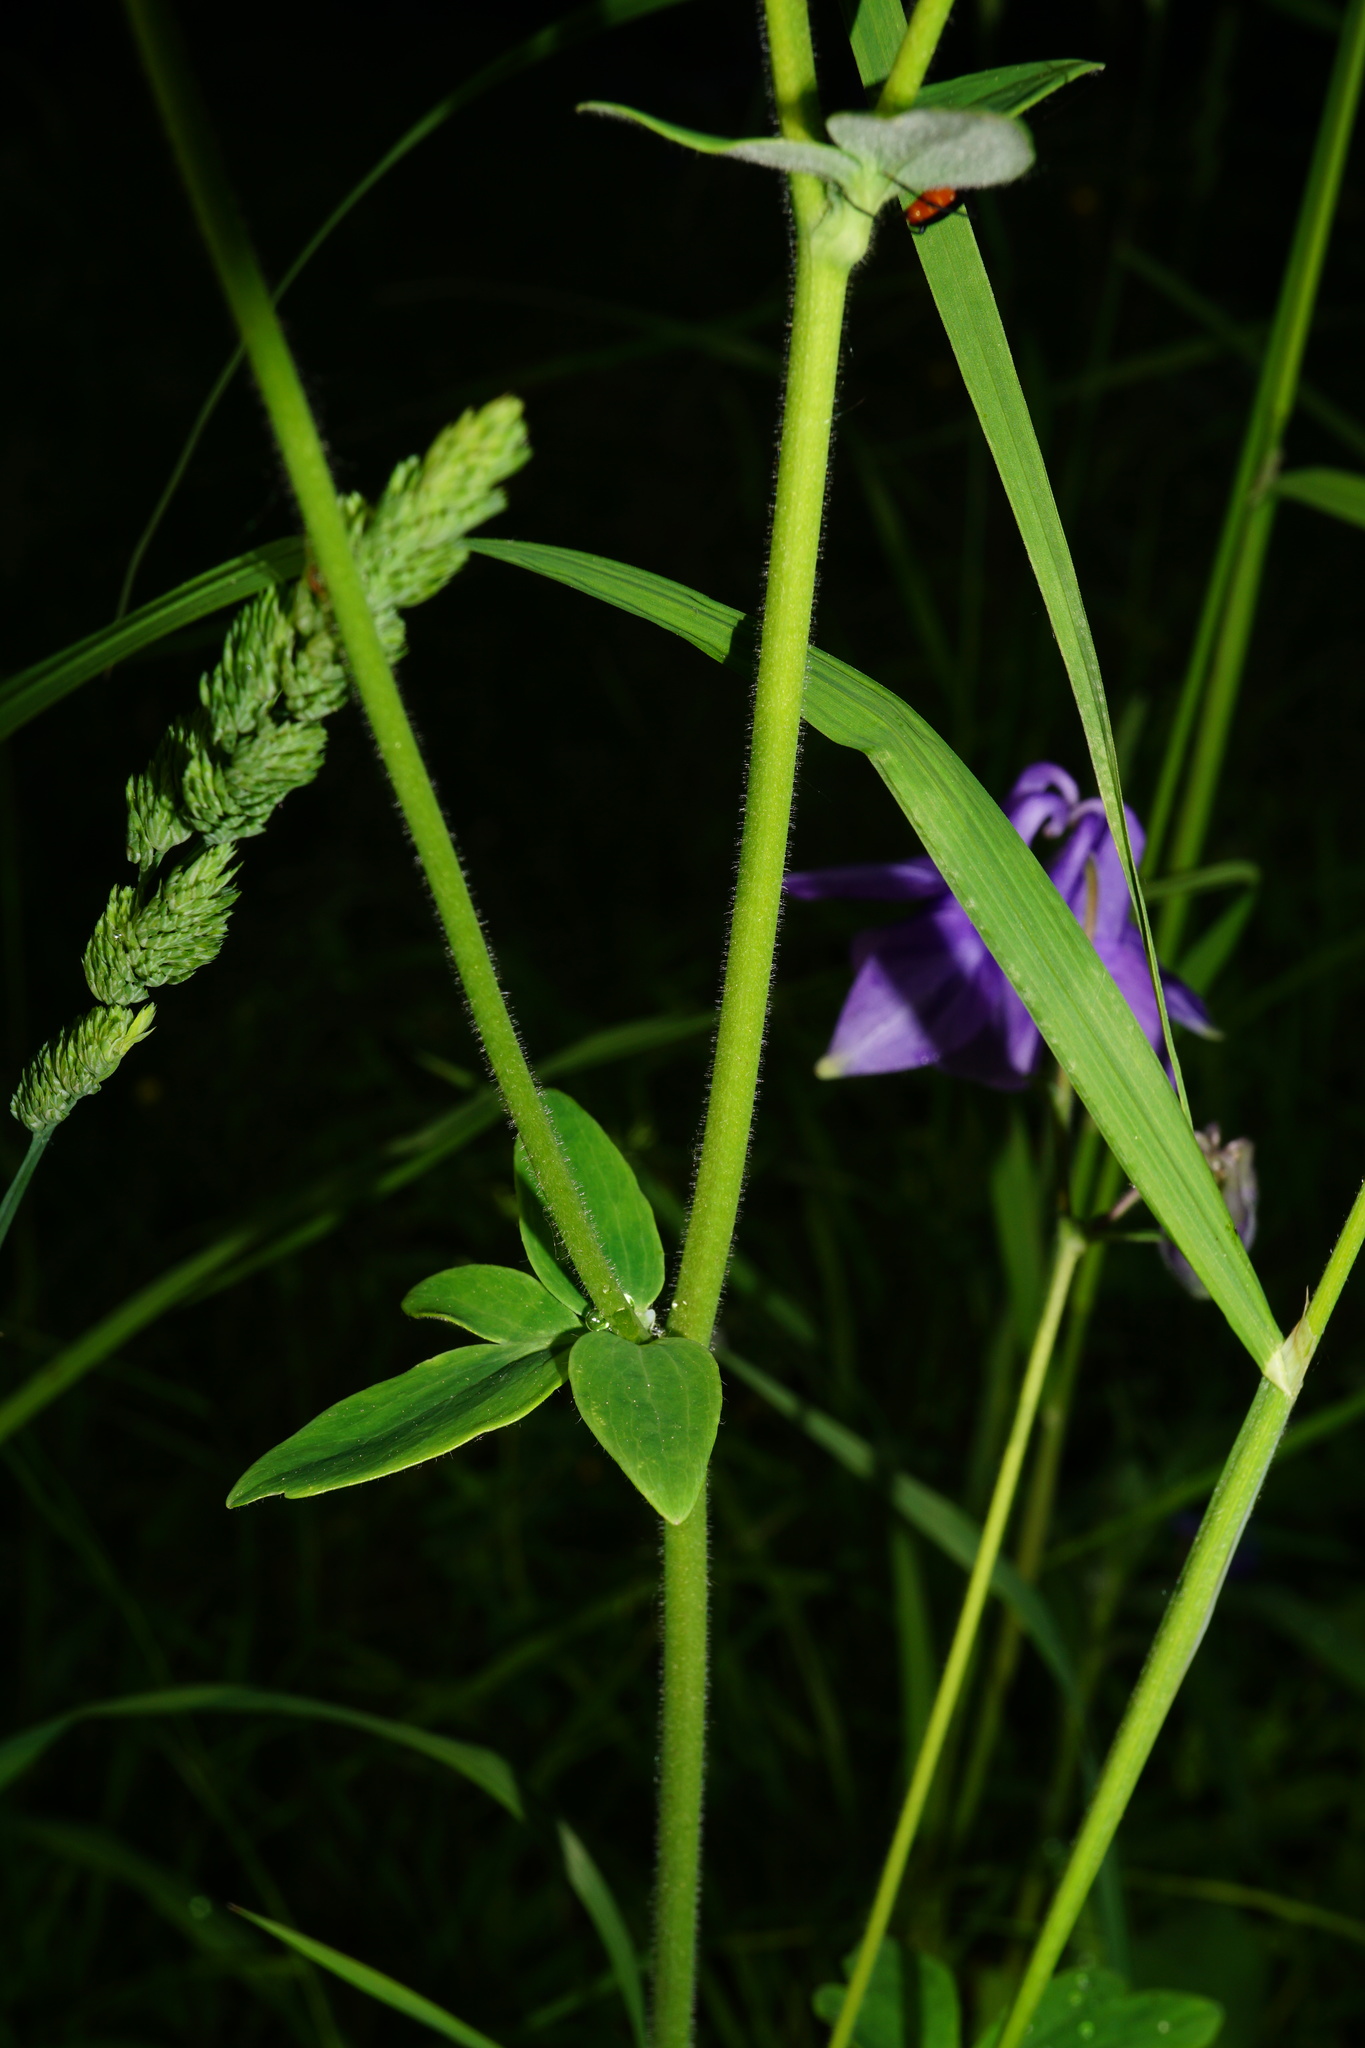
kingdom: Plantae
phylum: Tracheophyta
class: Magnoliopsida
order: Ranunculales
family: Ranunculaceae
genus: Aquilegia
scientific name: Aquilegia vulgaris
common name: Columbine
